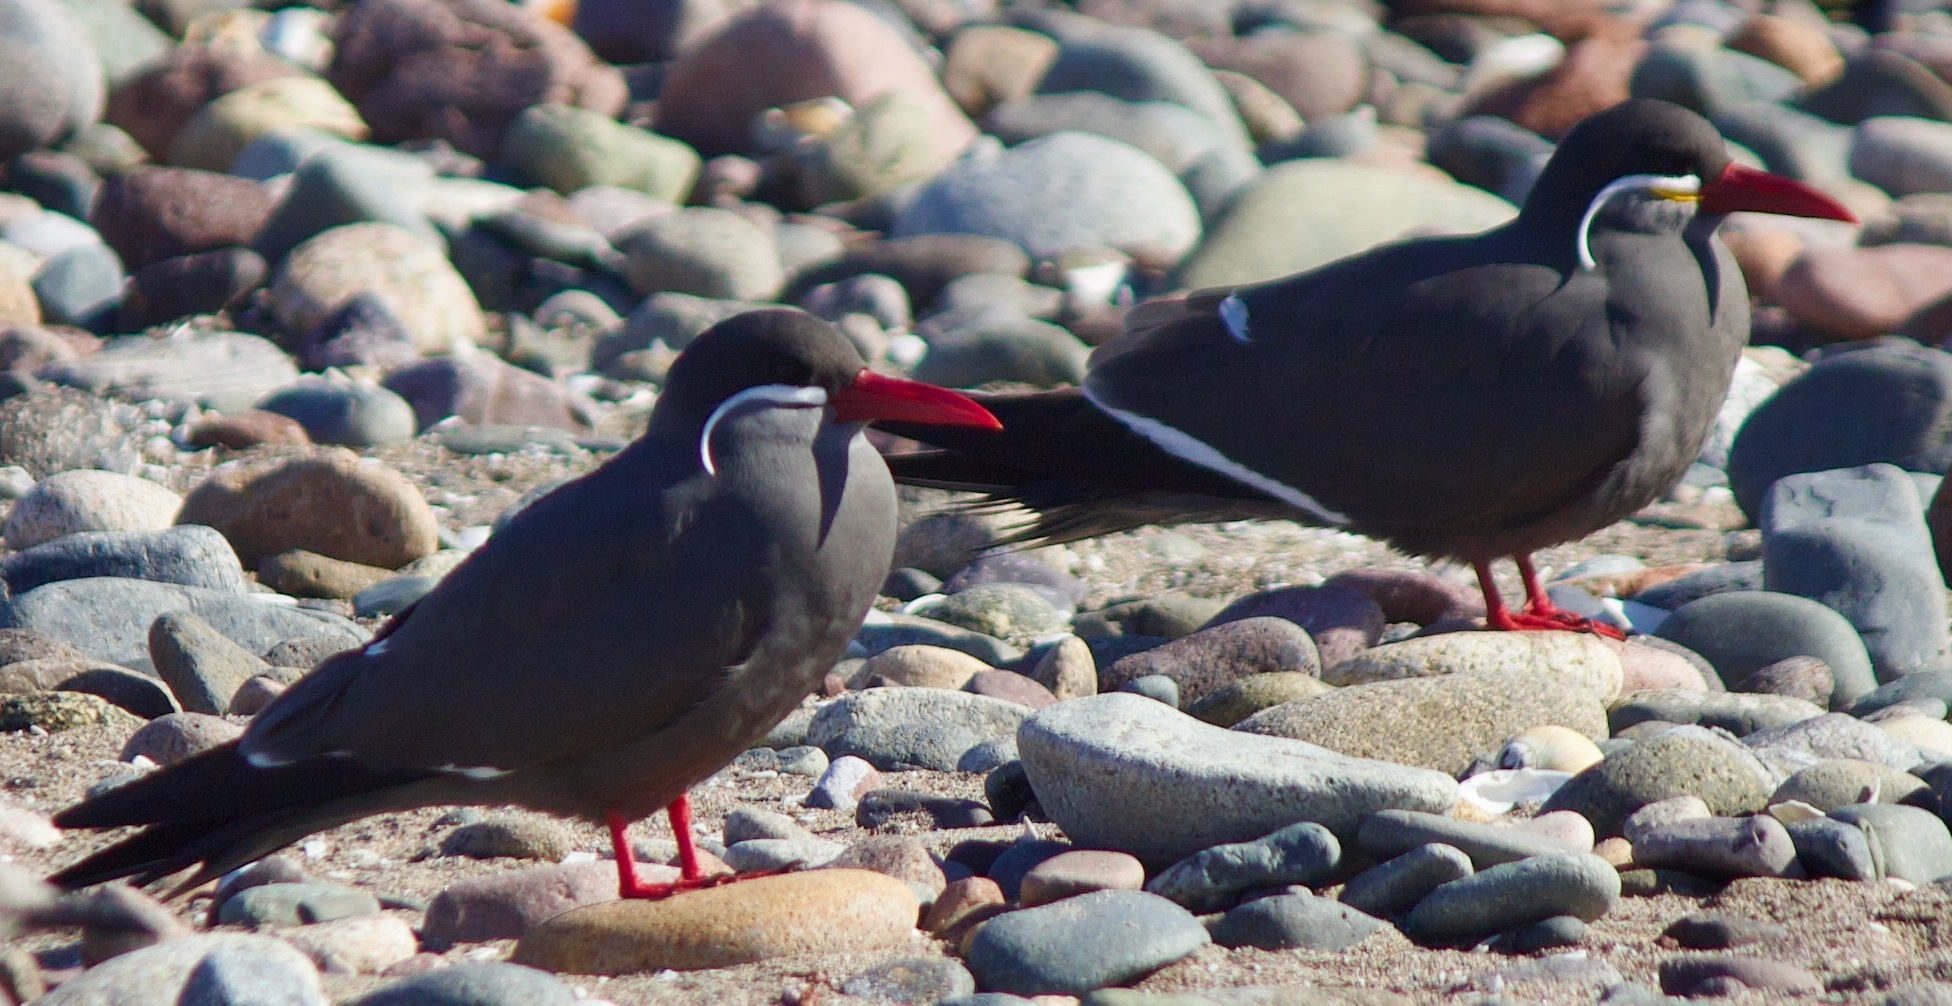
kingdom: Animalia
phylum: Chordata
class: Aves
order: Charadriiformes
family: Laridae
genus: Larosterna
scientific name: Larosterna inca
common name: Inca tern
